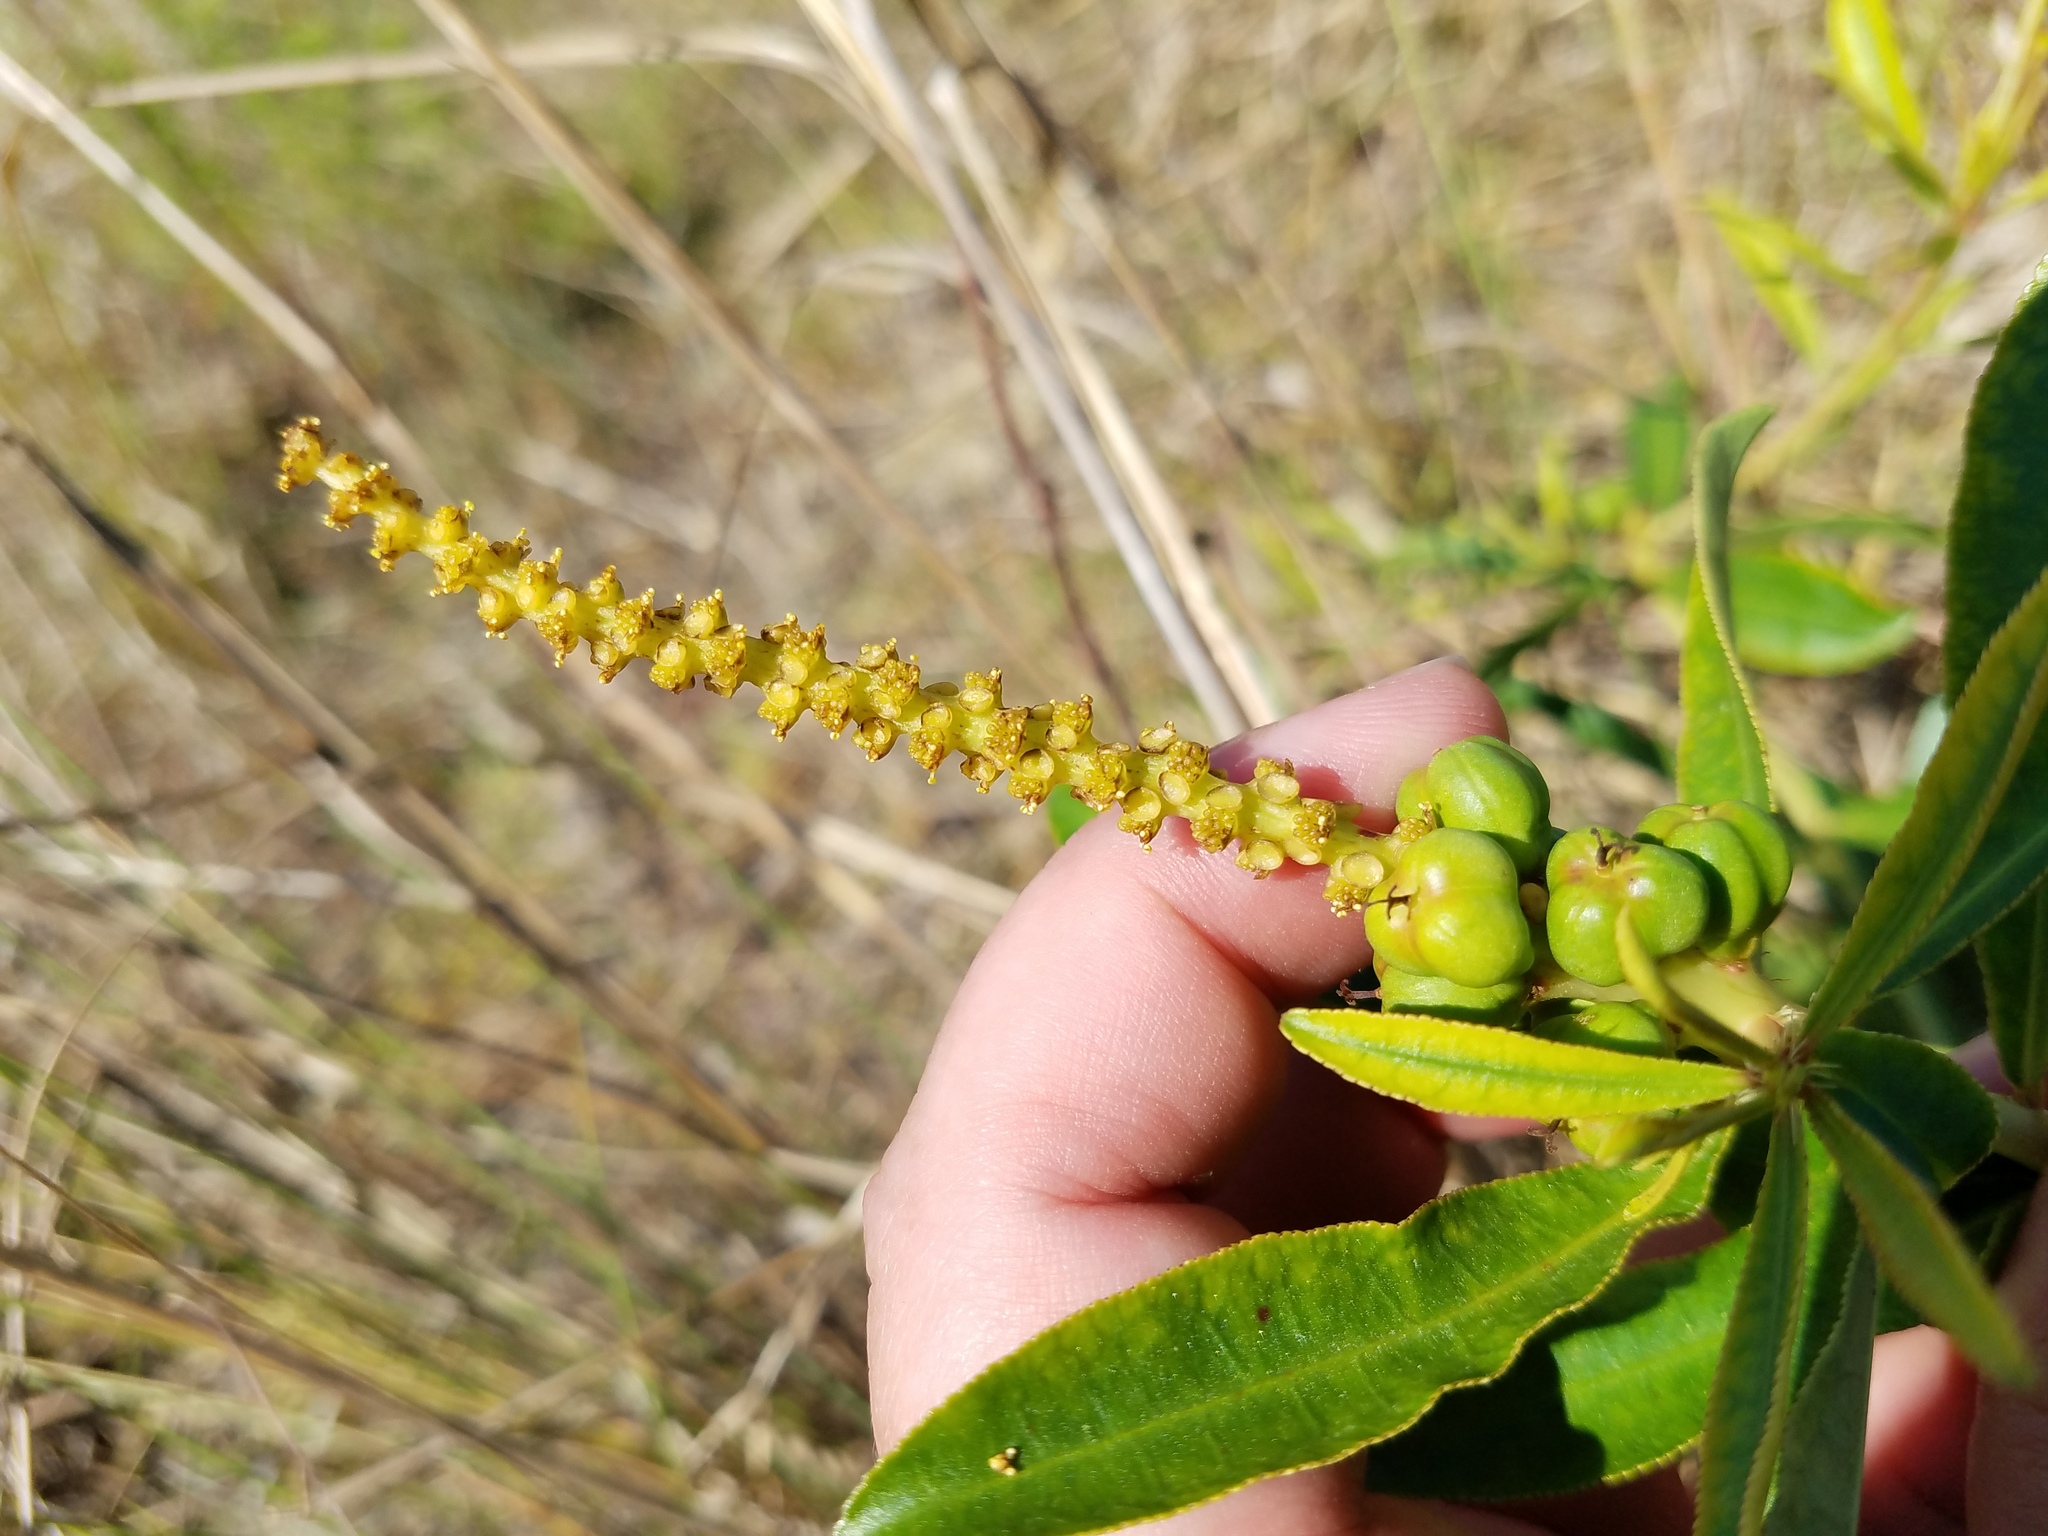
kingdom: Plantae
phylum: Tracheophyta
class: Magnoliopsida
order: Malpighiales
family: Euphorbiaceae
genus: Stillingia
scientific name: Stillingia sylvatica
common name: Queen's-delight
